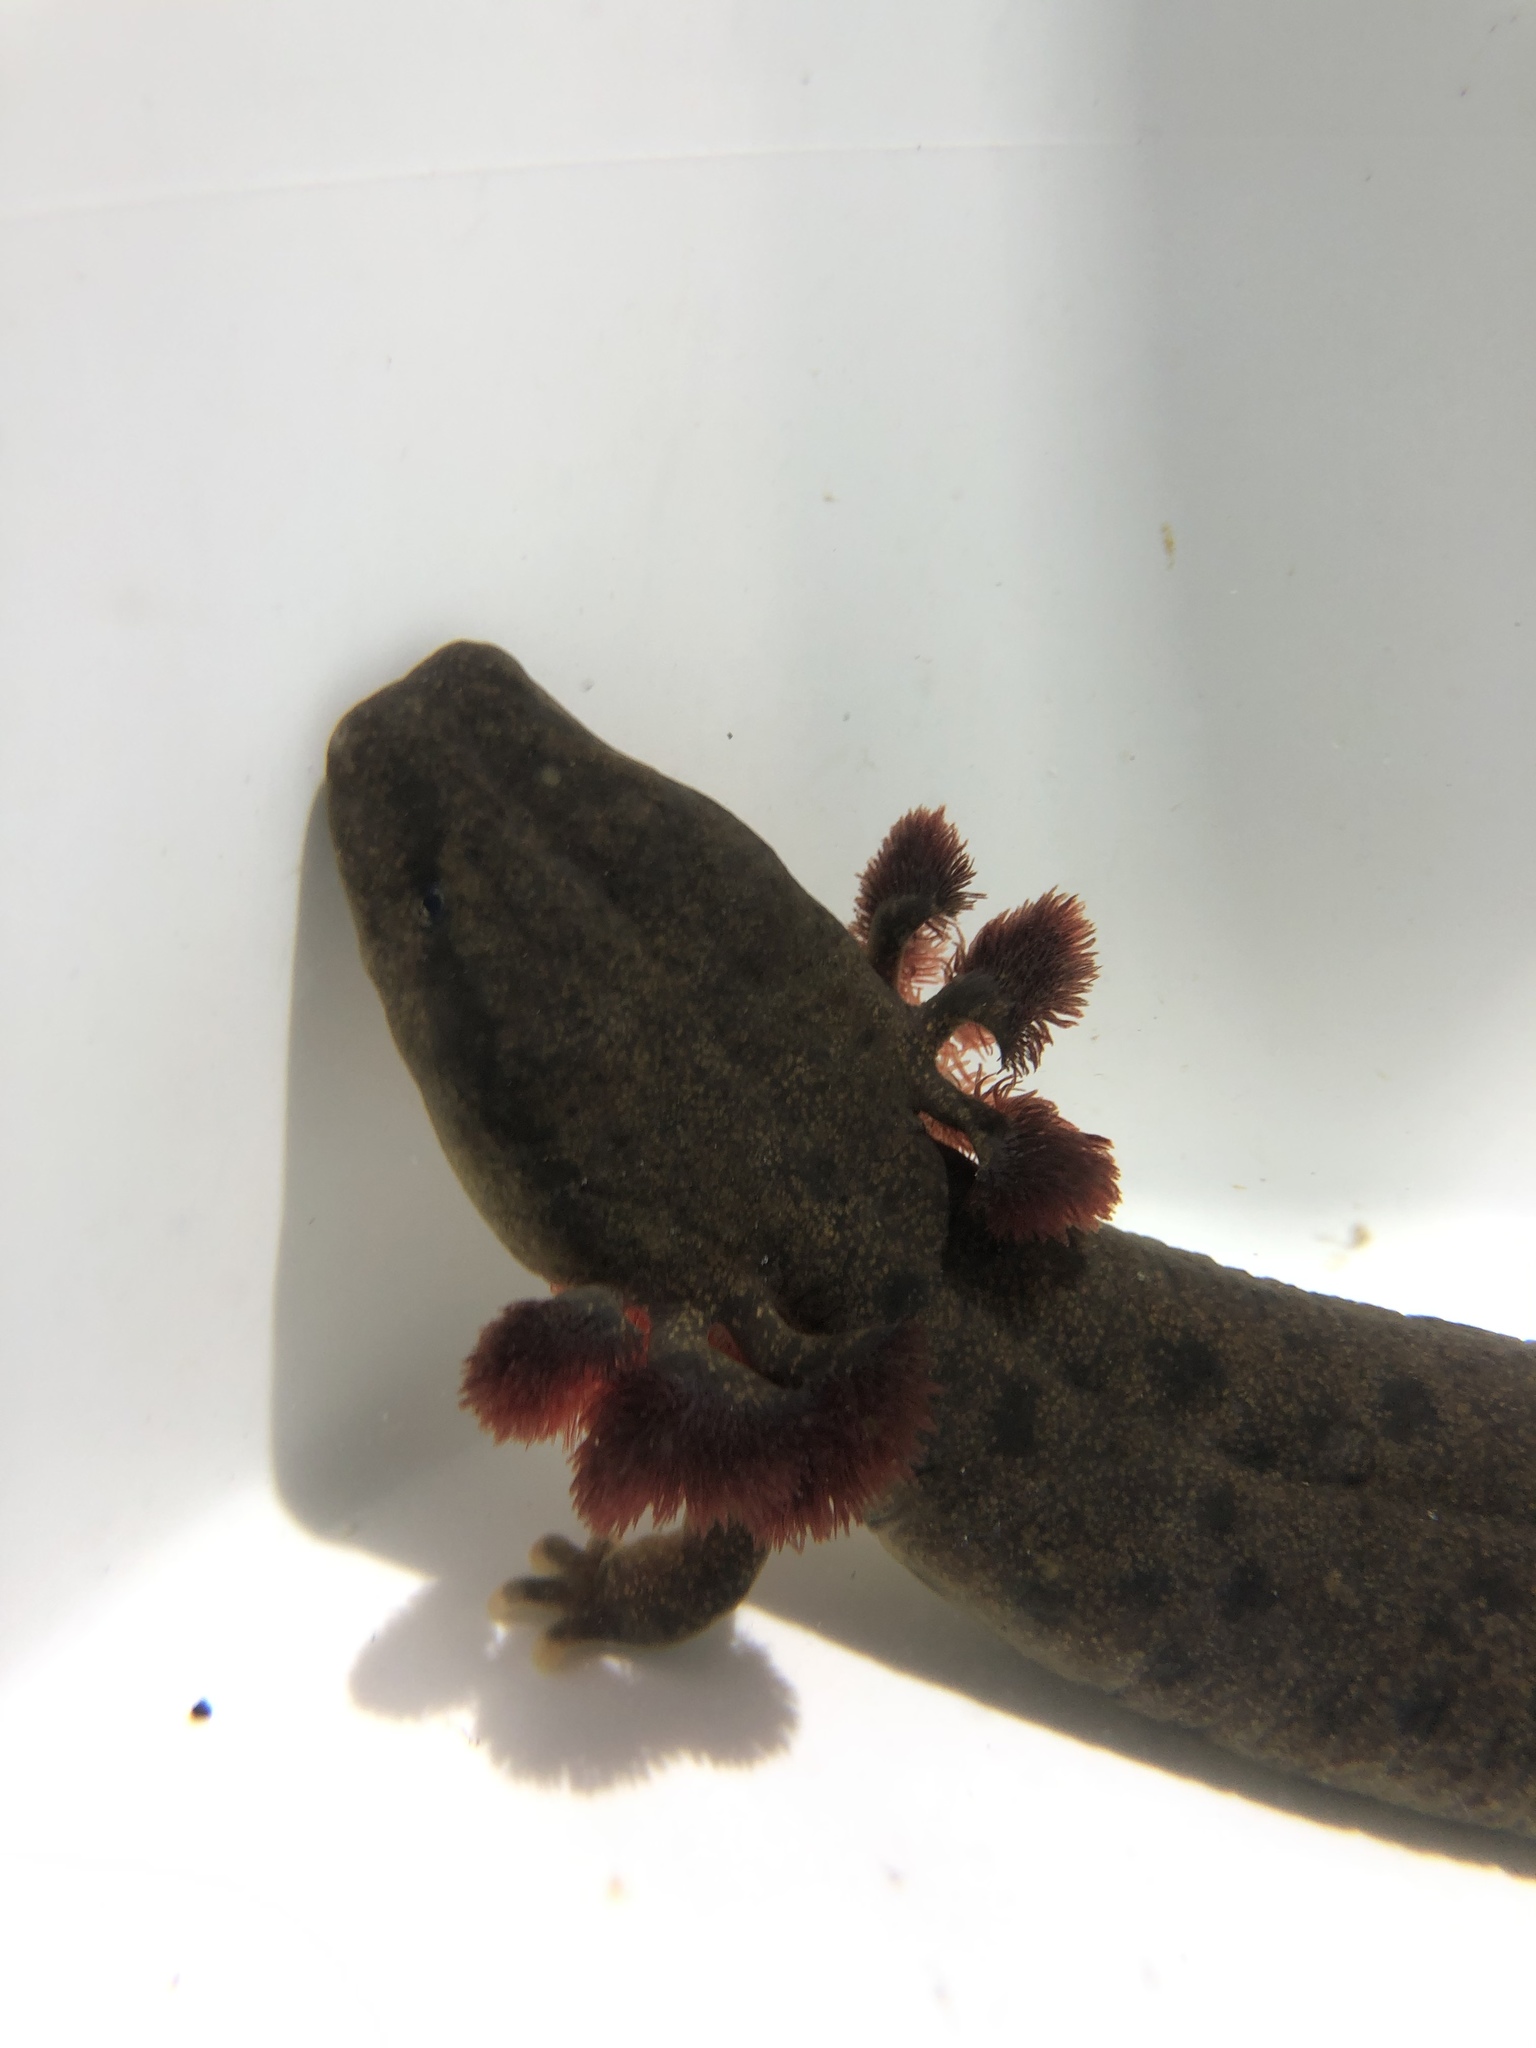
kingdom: Animalia
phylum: Chordata
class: Amphibia
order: Caudata
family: Proteidae
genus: Necturus
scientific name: Necturus maculosus
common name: Mudpuppy
